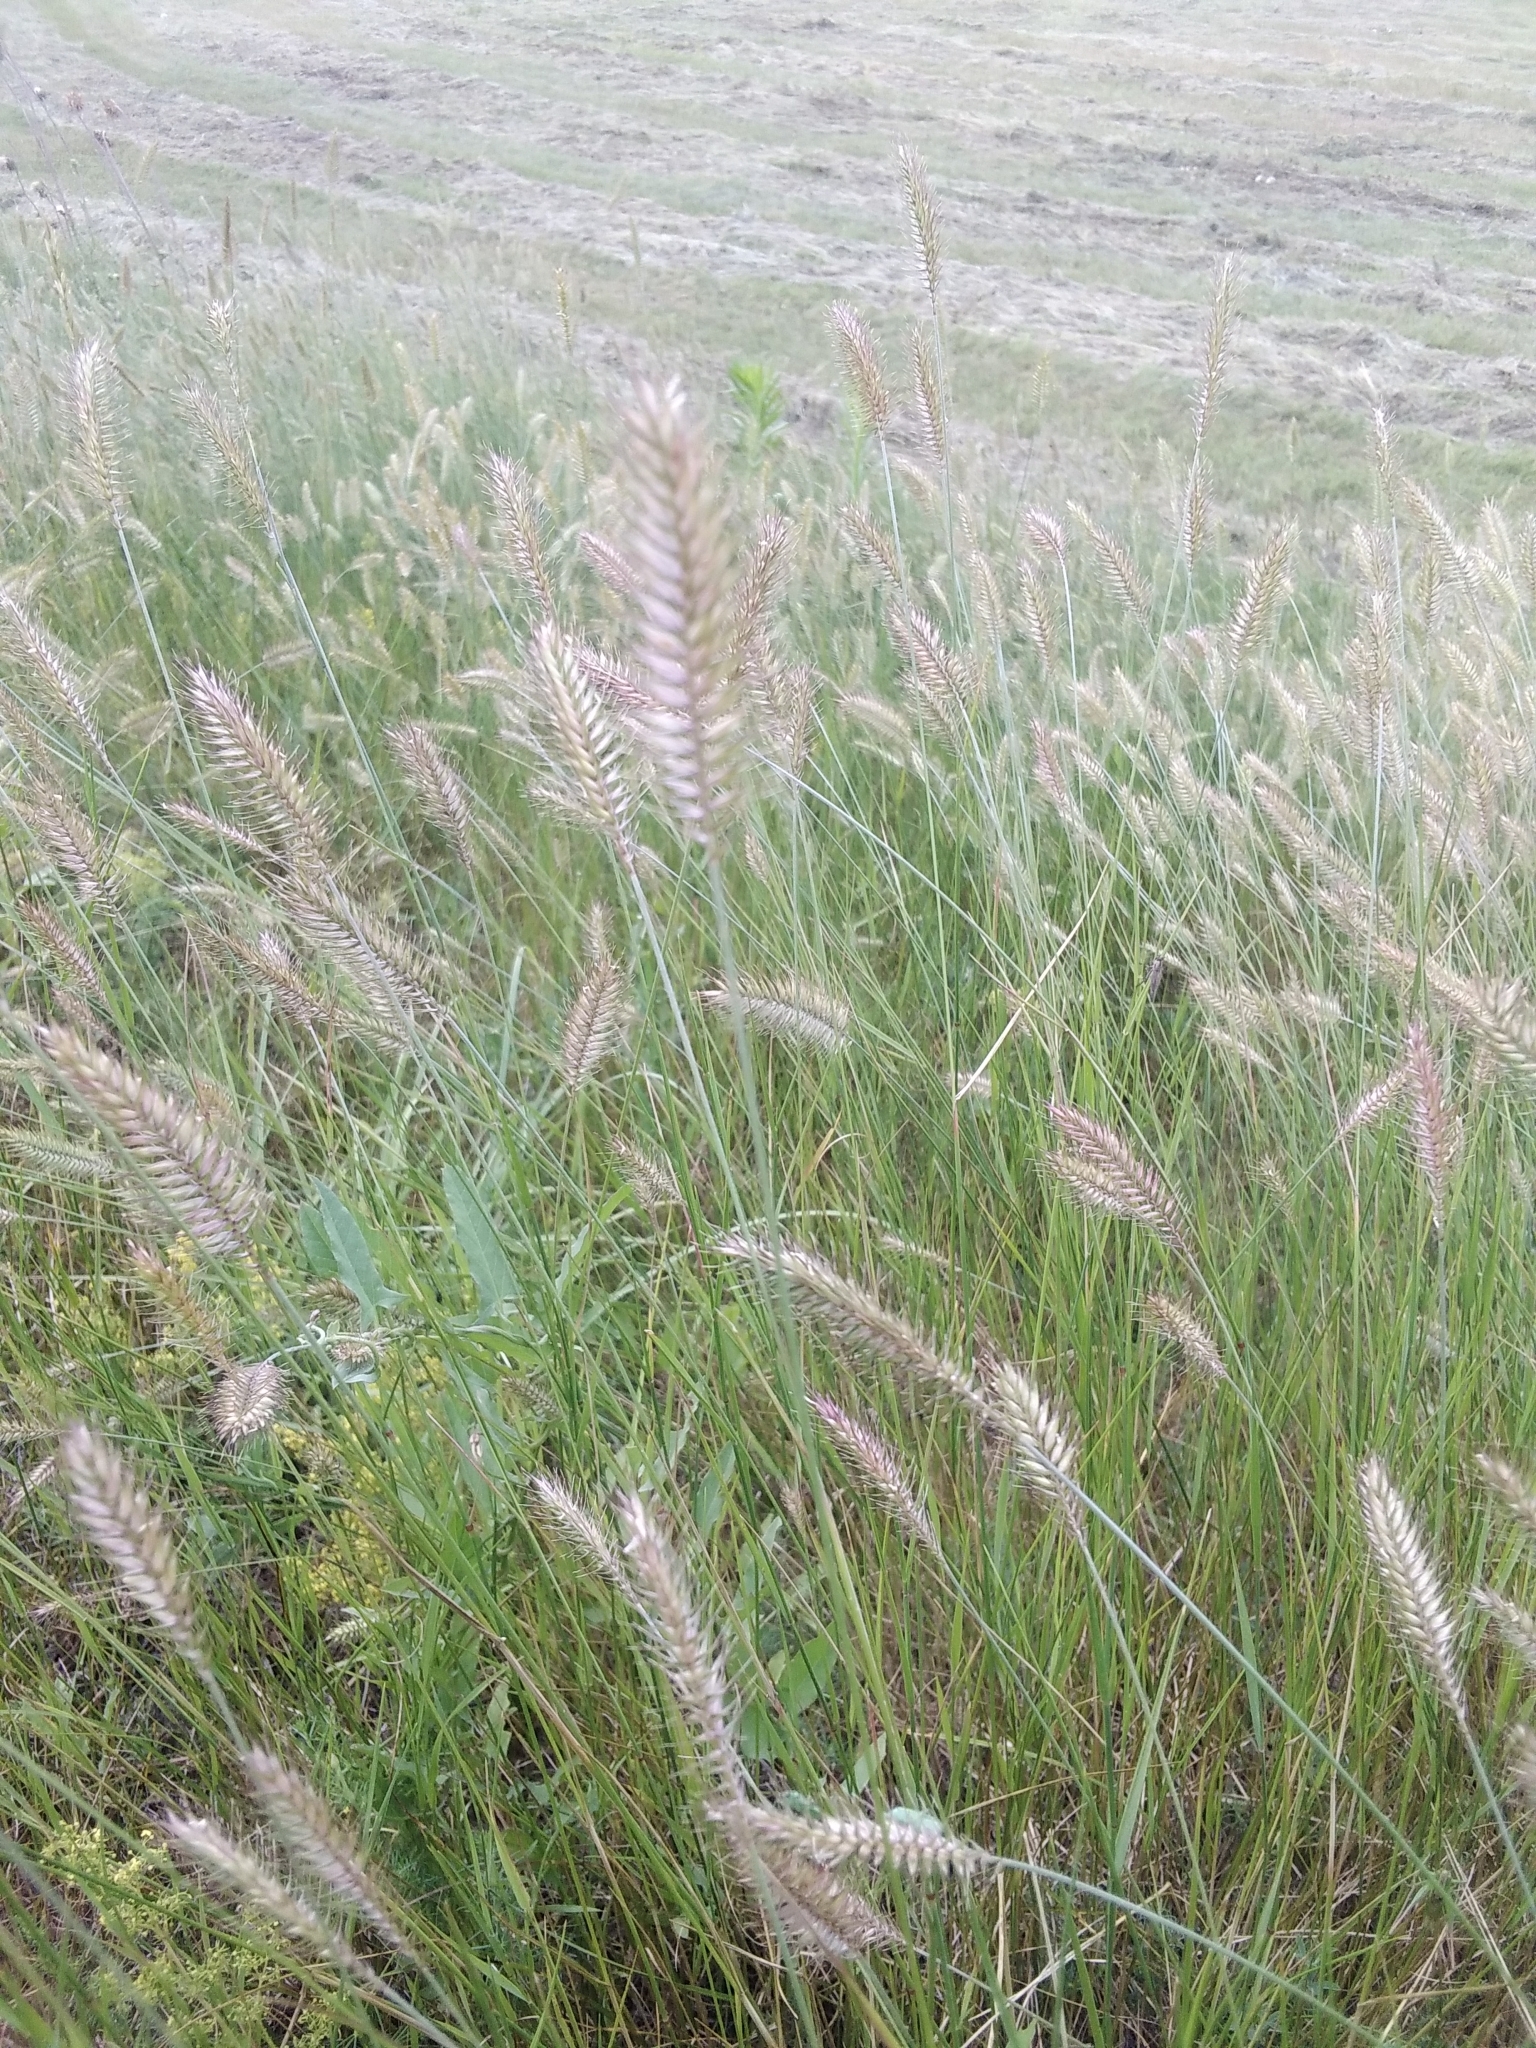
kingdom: Plantae
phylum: Tracheophyta
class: Liliopsida
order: Poales
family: Poaceae
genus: Agropyron
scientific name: Agropyron cristatum
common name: Crested wheatgrass
